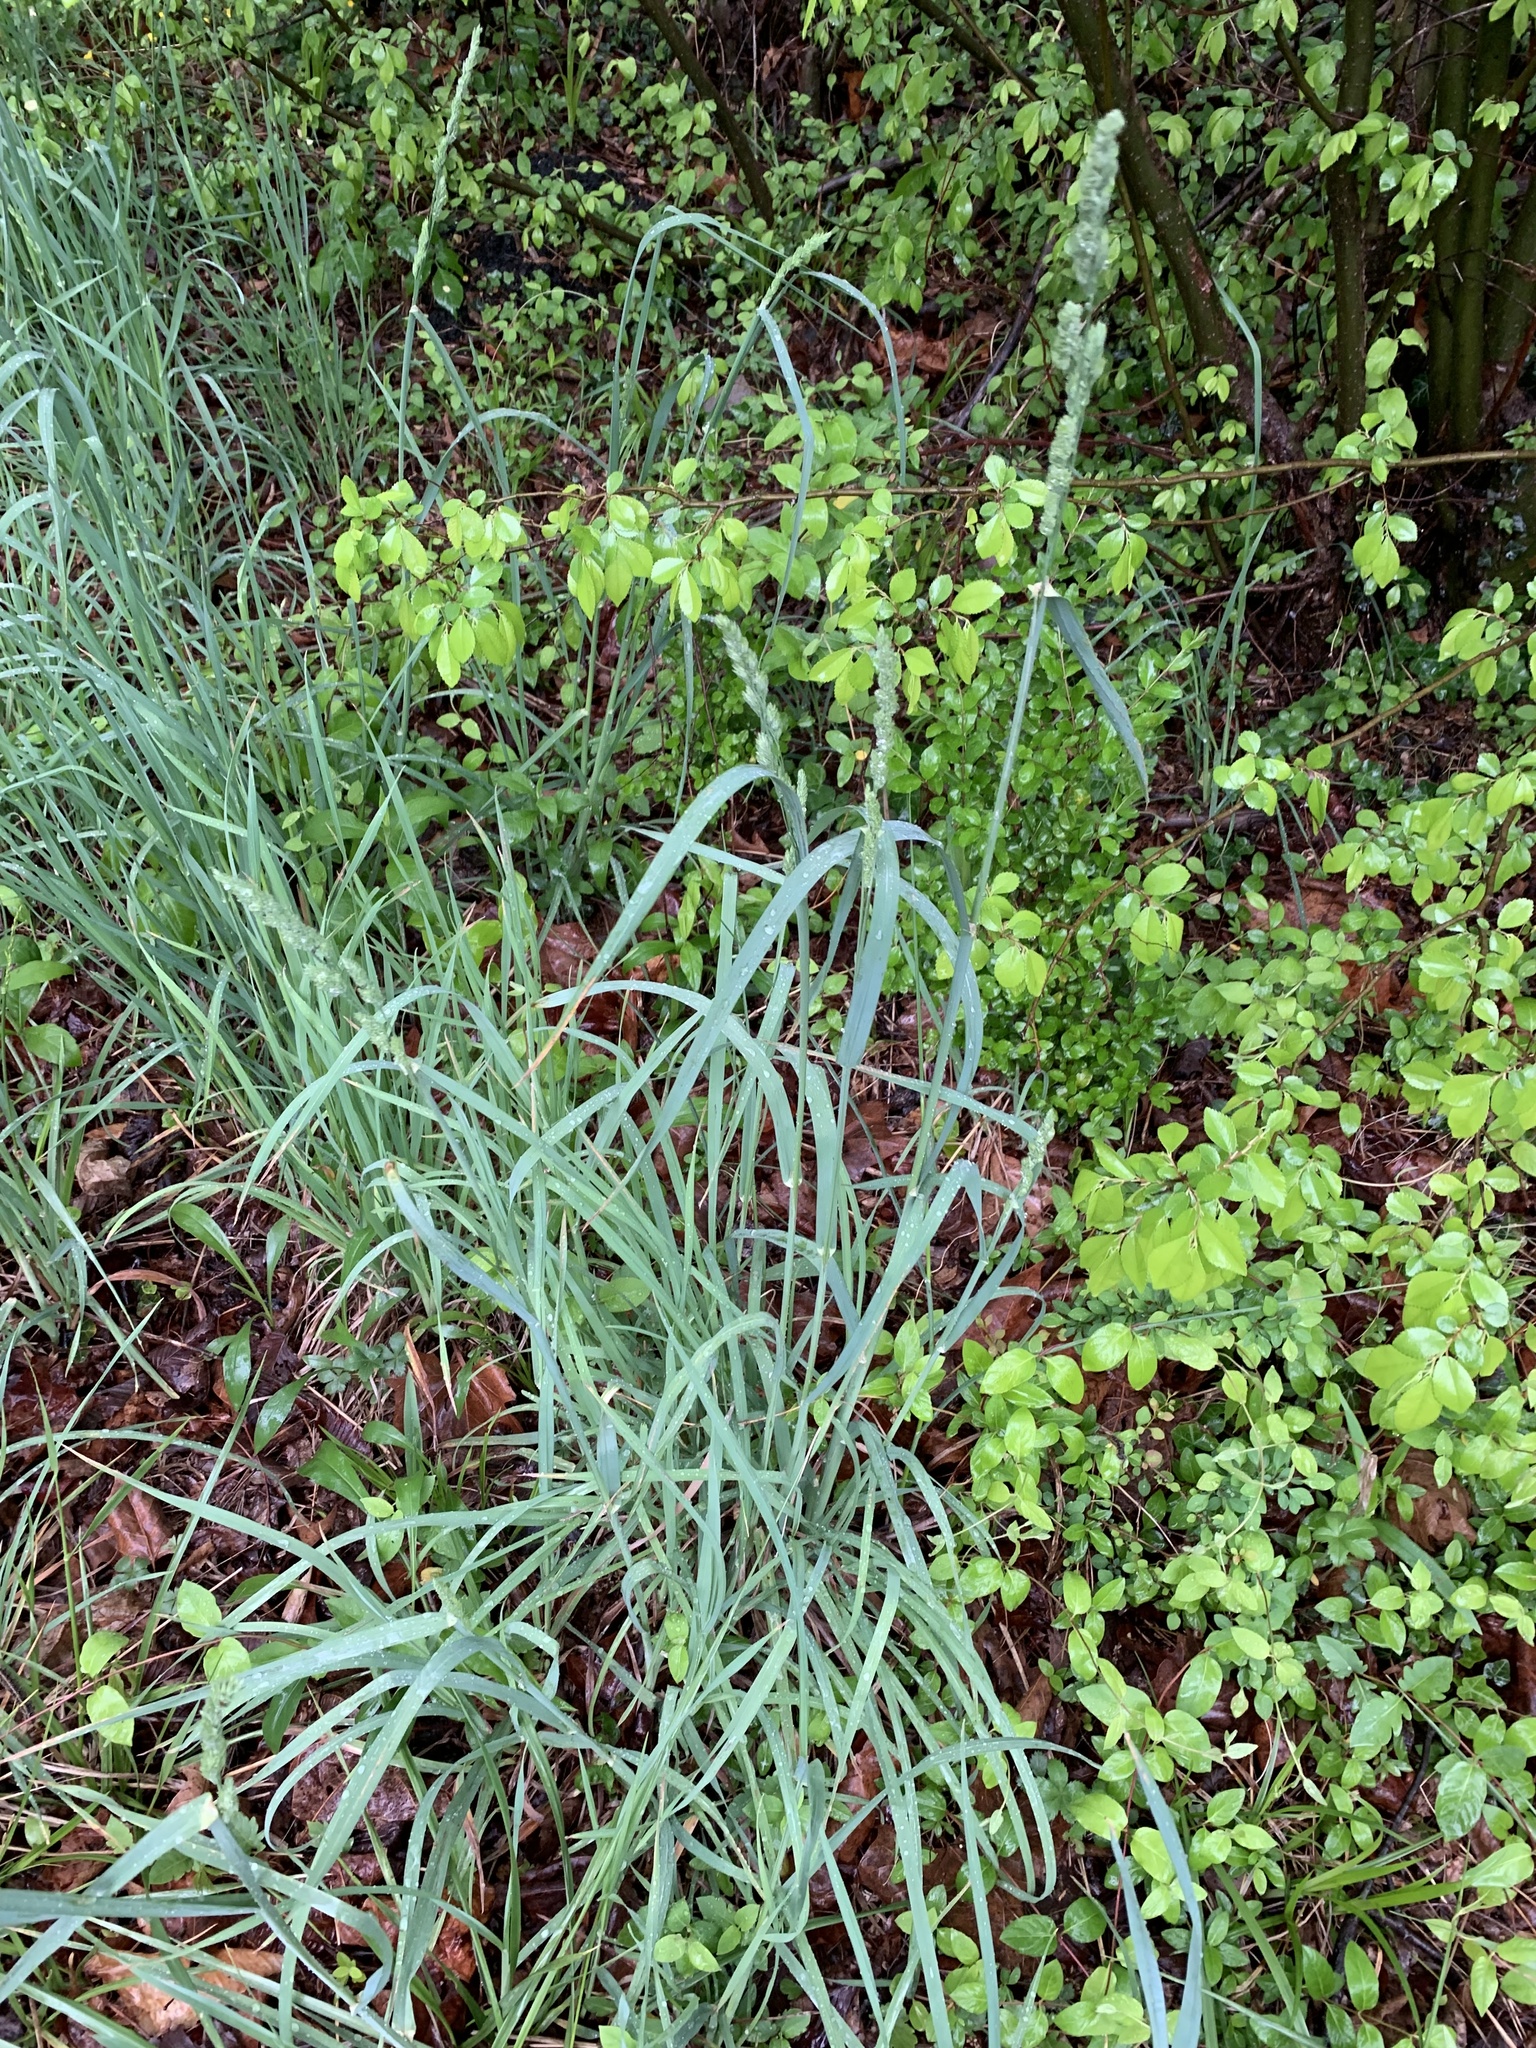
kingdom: Plantae
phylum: Tracheophyta
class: Liliopsida
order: Poales
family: Poaceae
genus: Dactylis
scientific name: Dactylis glomerata
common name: Orchardgrass
